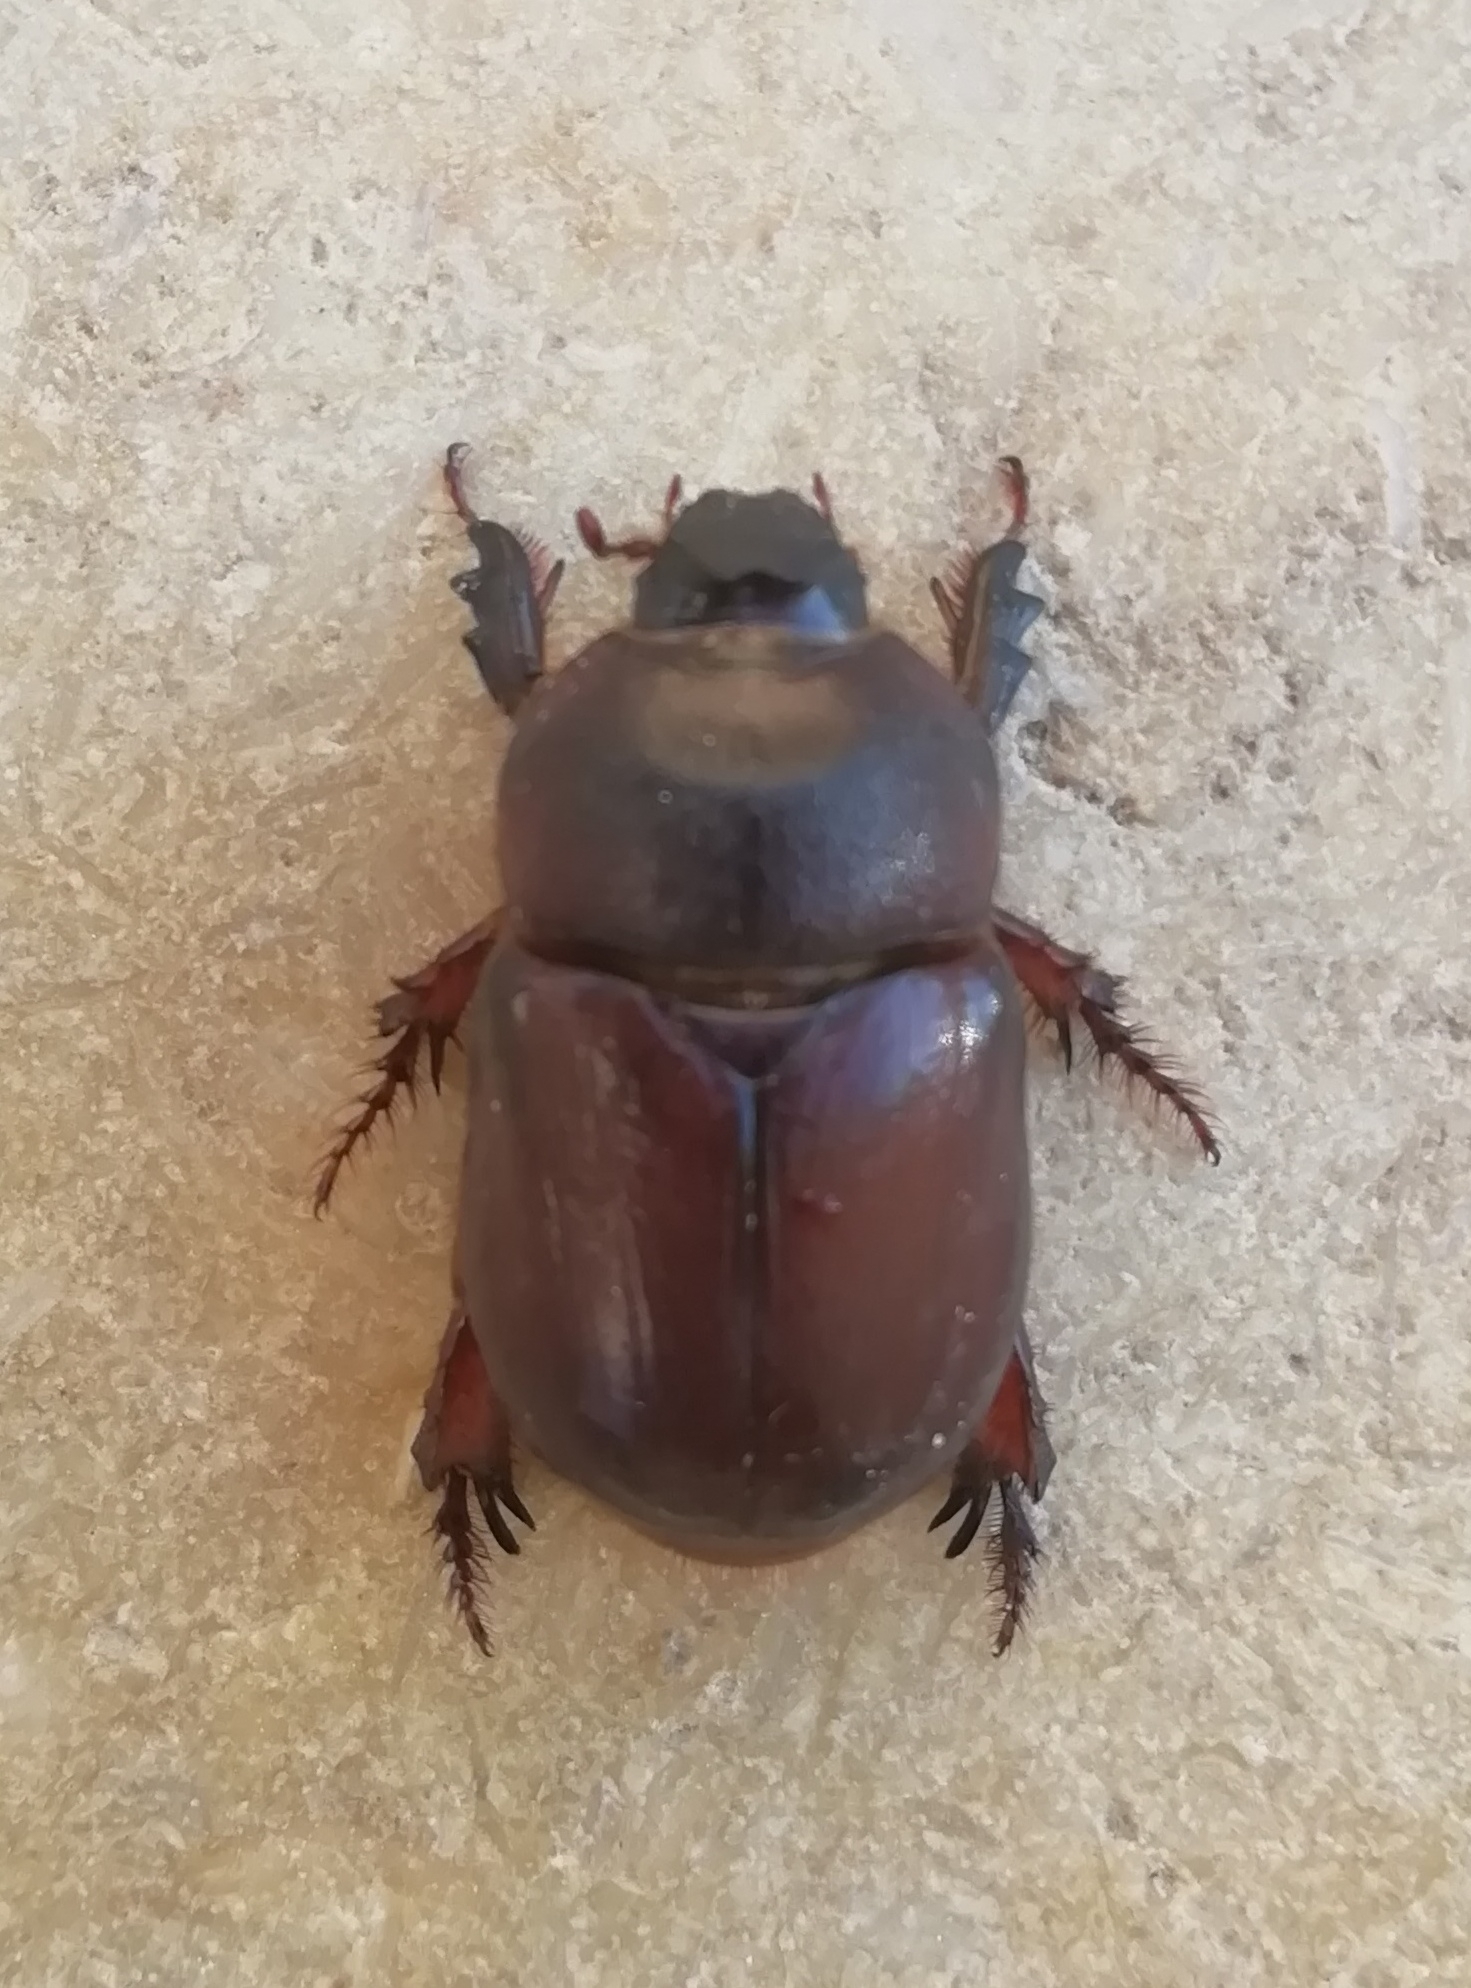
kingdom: Animalia
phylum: Arthropoda
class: Insecta
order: Coleoptera
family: Scarabaeidae
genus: Temnorhynchus
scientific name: Temnorhynchus baal
